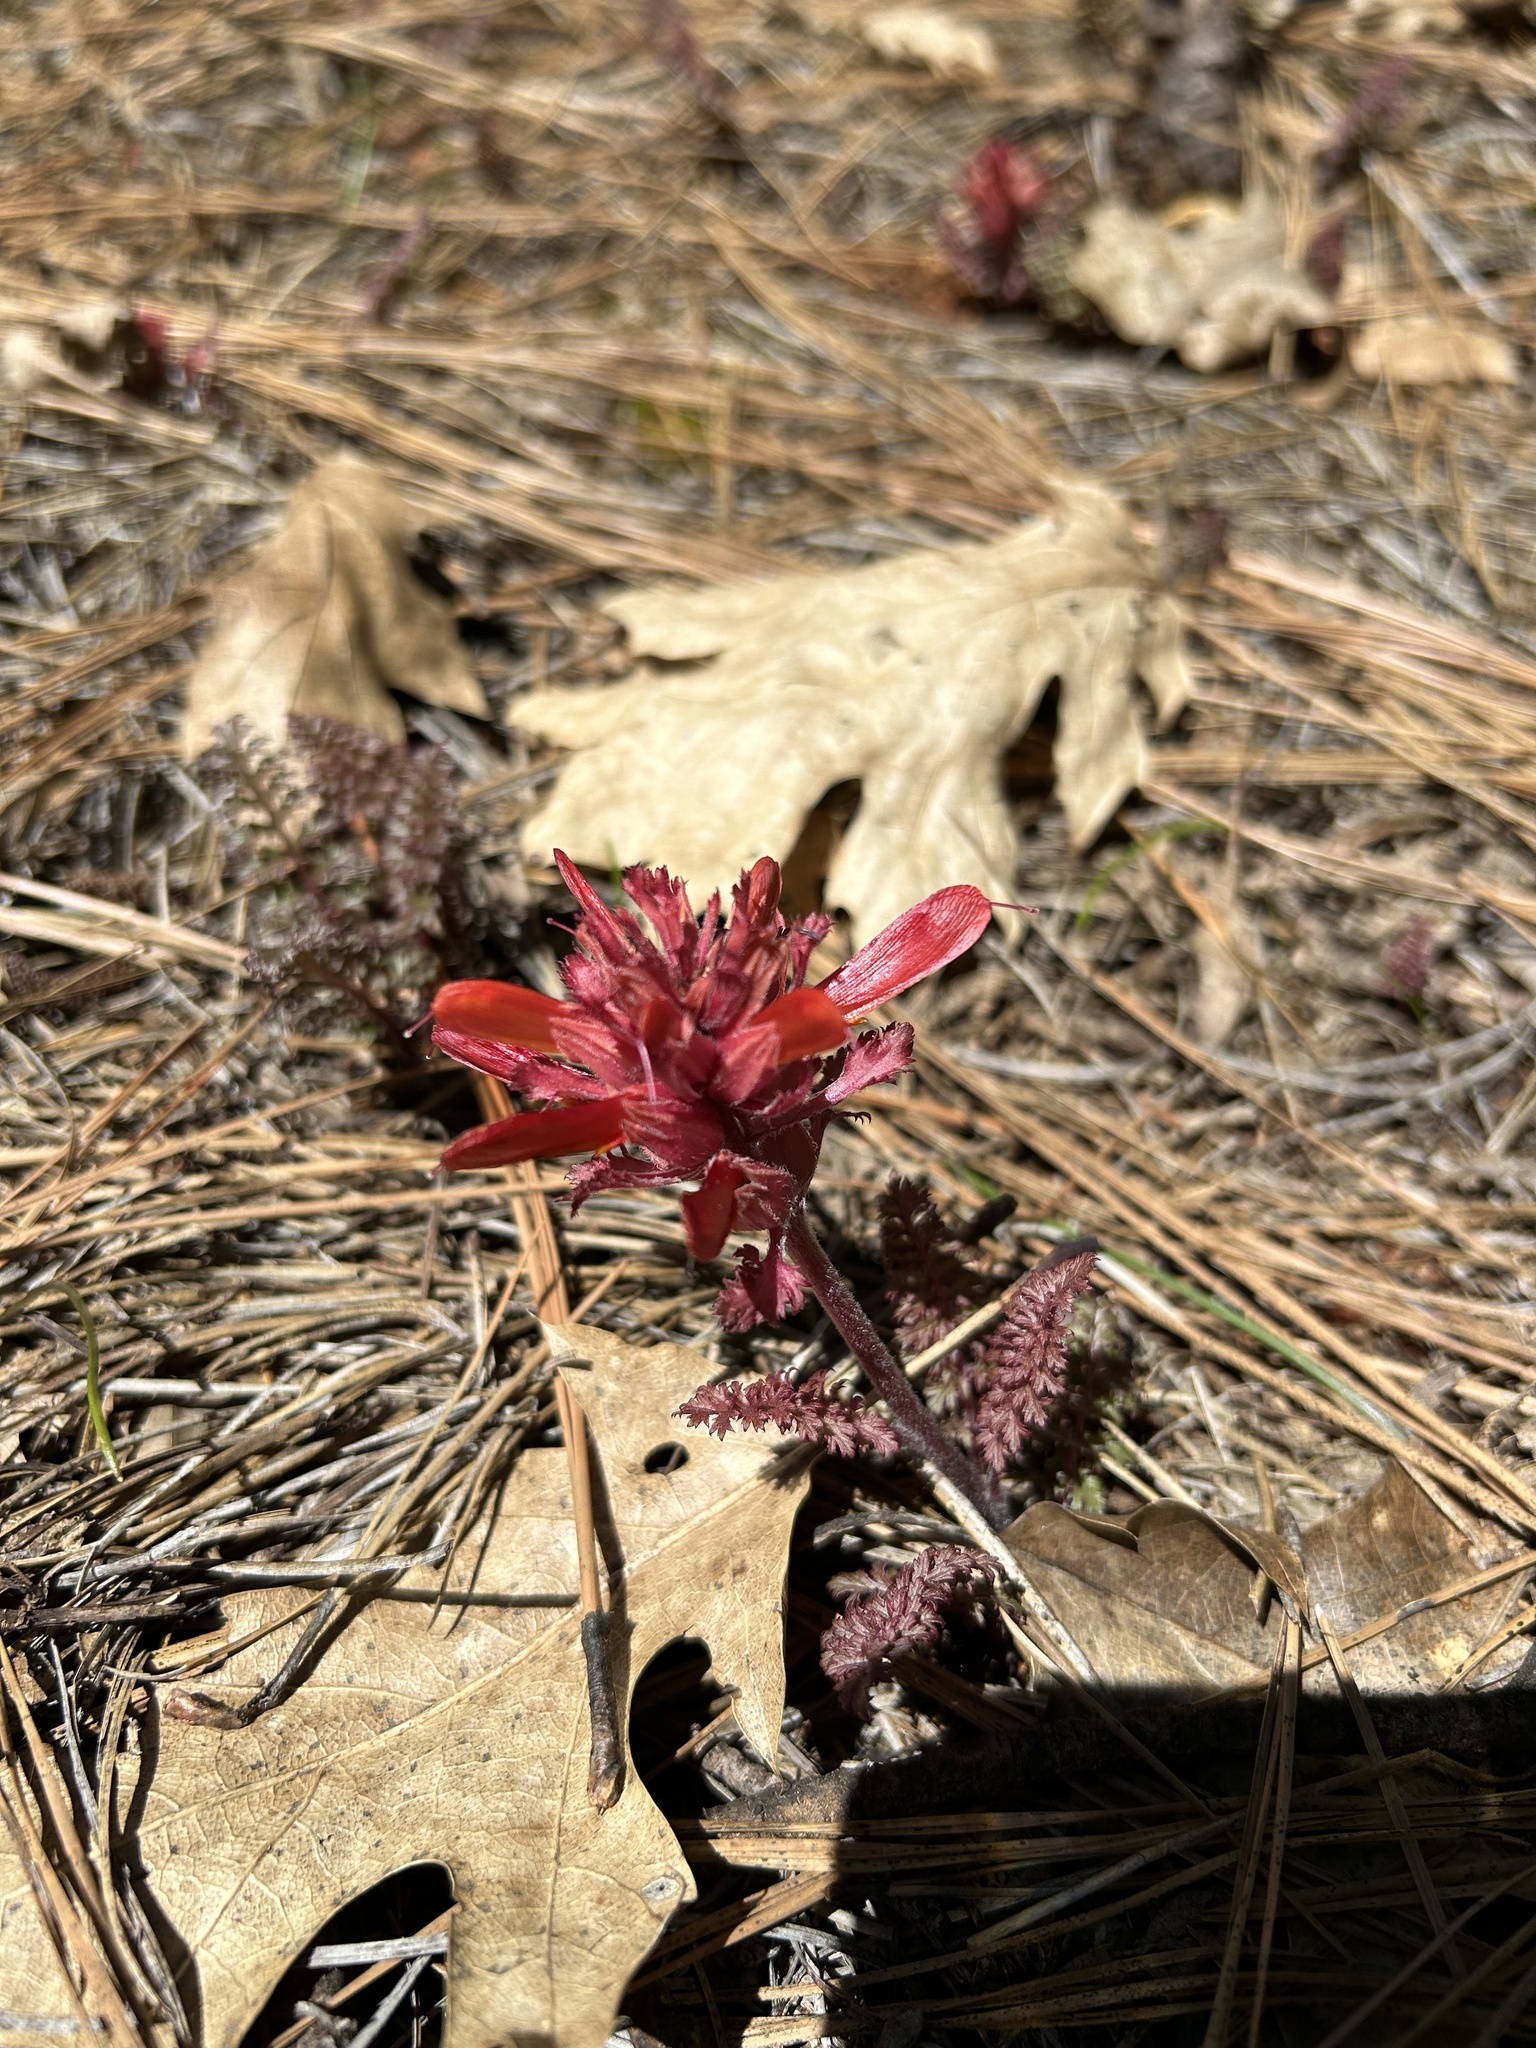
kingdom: Plantae
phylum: Tracheophyta
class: Magnoliopsida
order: Lamiales
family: Orobanchaceae
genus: Pedicularis
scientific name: Pedicularis densiflora
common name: Indian warrior
